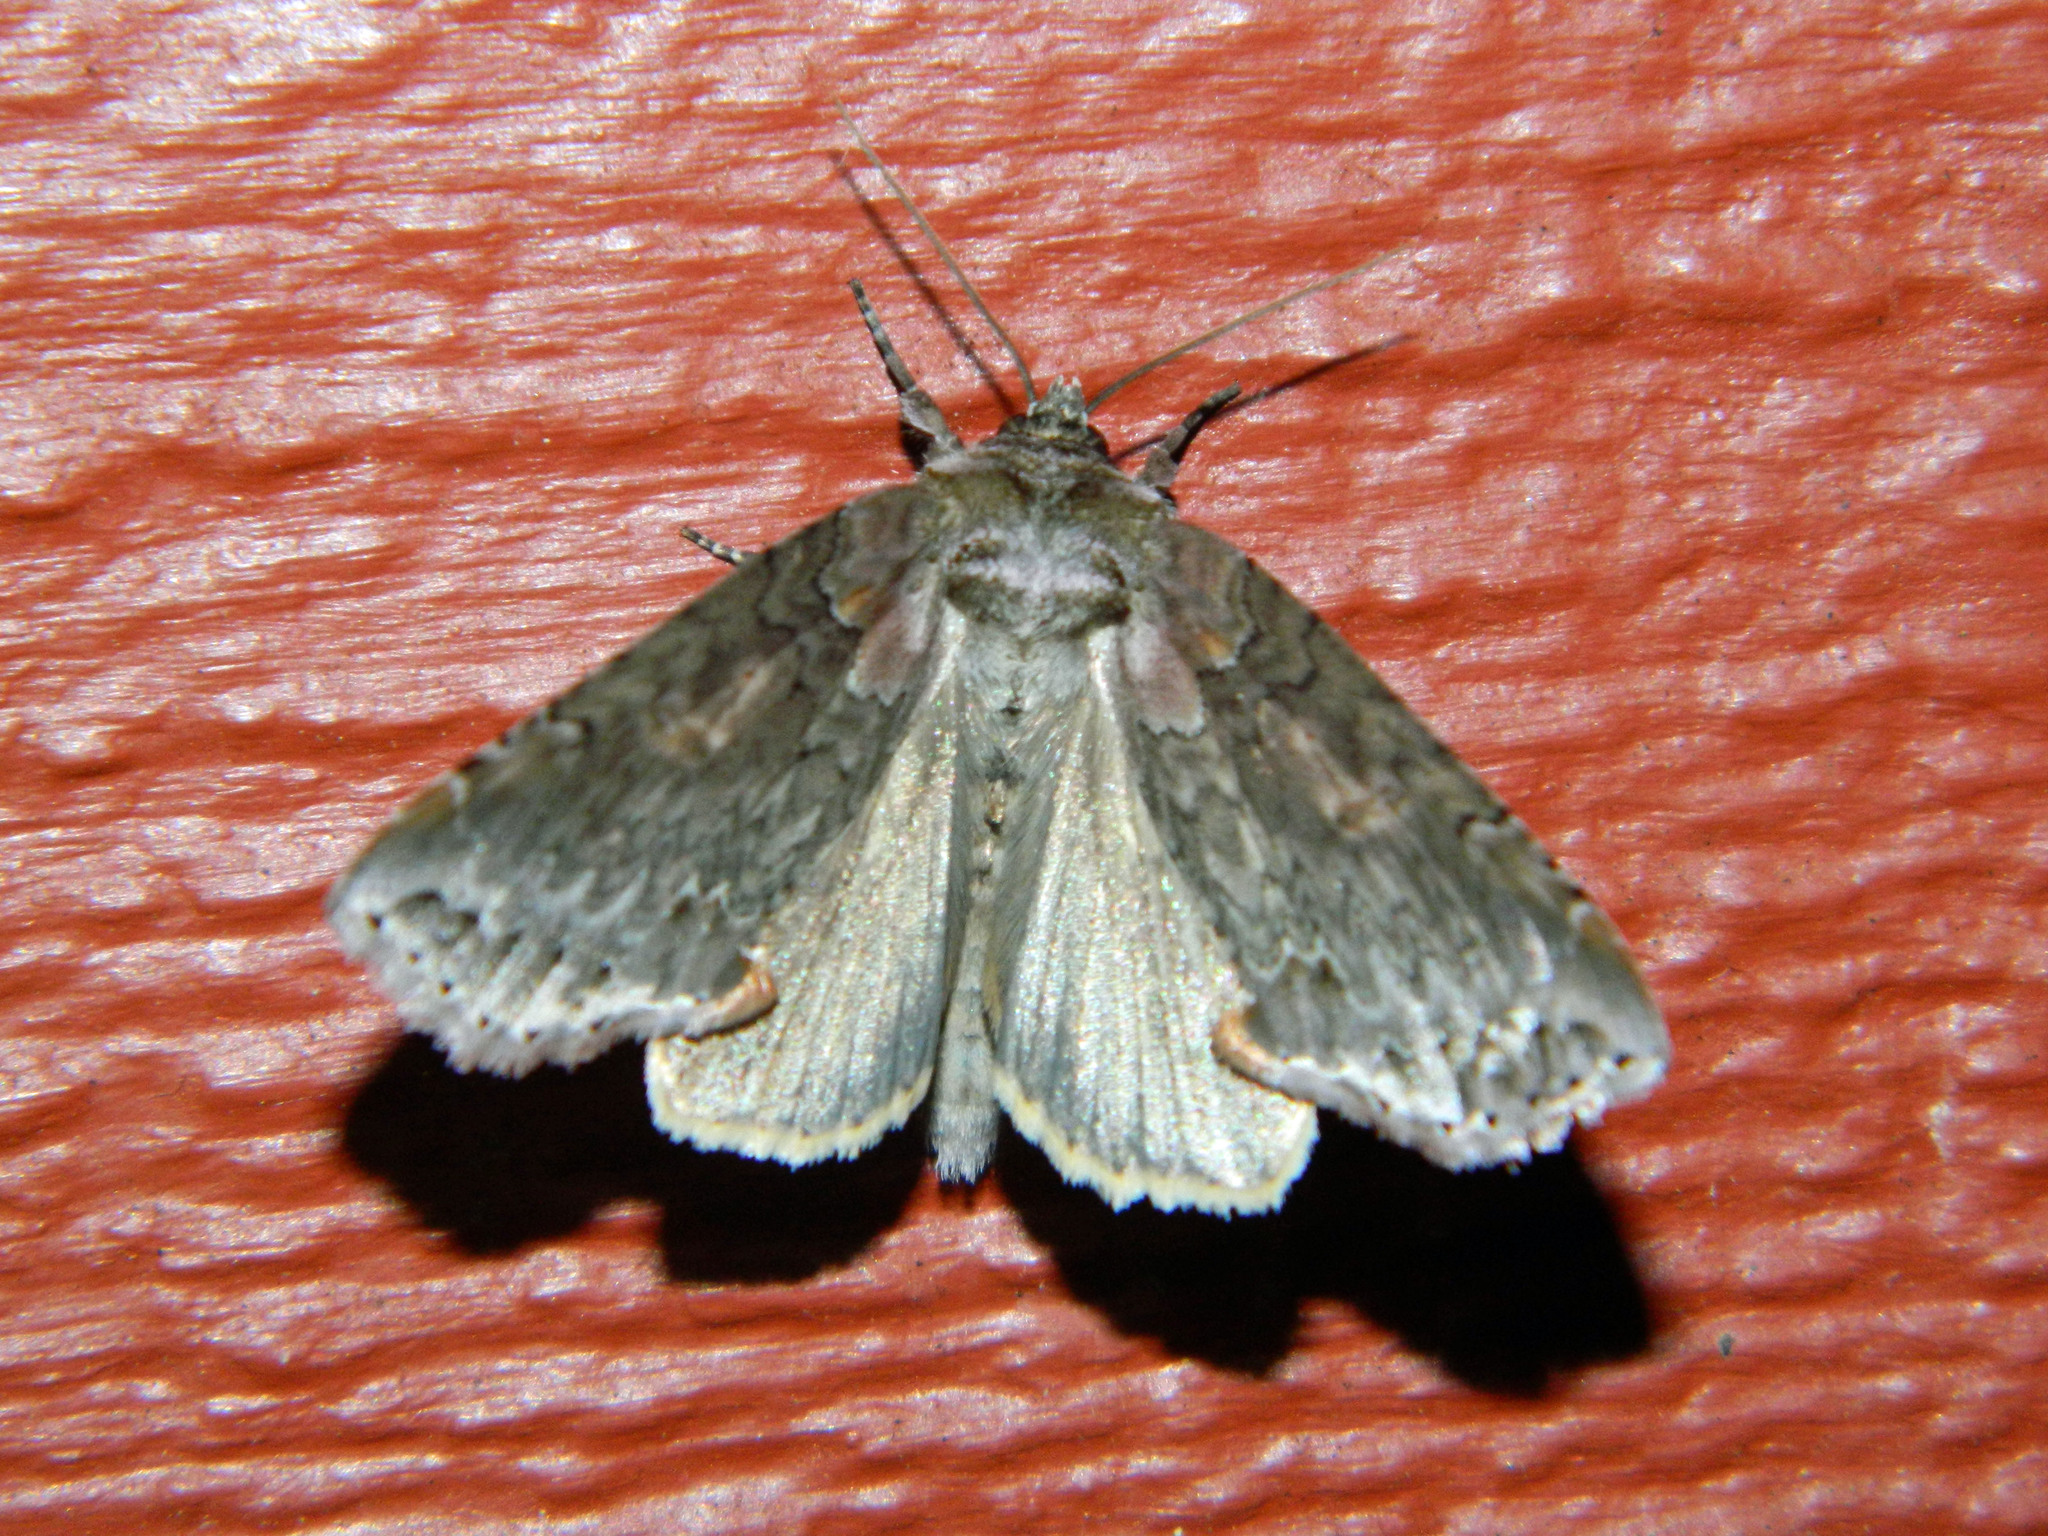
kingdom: Animalia
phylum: Arthropoda
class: Insecta
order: Lepidoptera
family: Drepanidae
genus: Pseudothyatira
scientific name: Pseudothyatira cymatophoroides
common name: Tufted thyatirid moth
